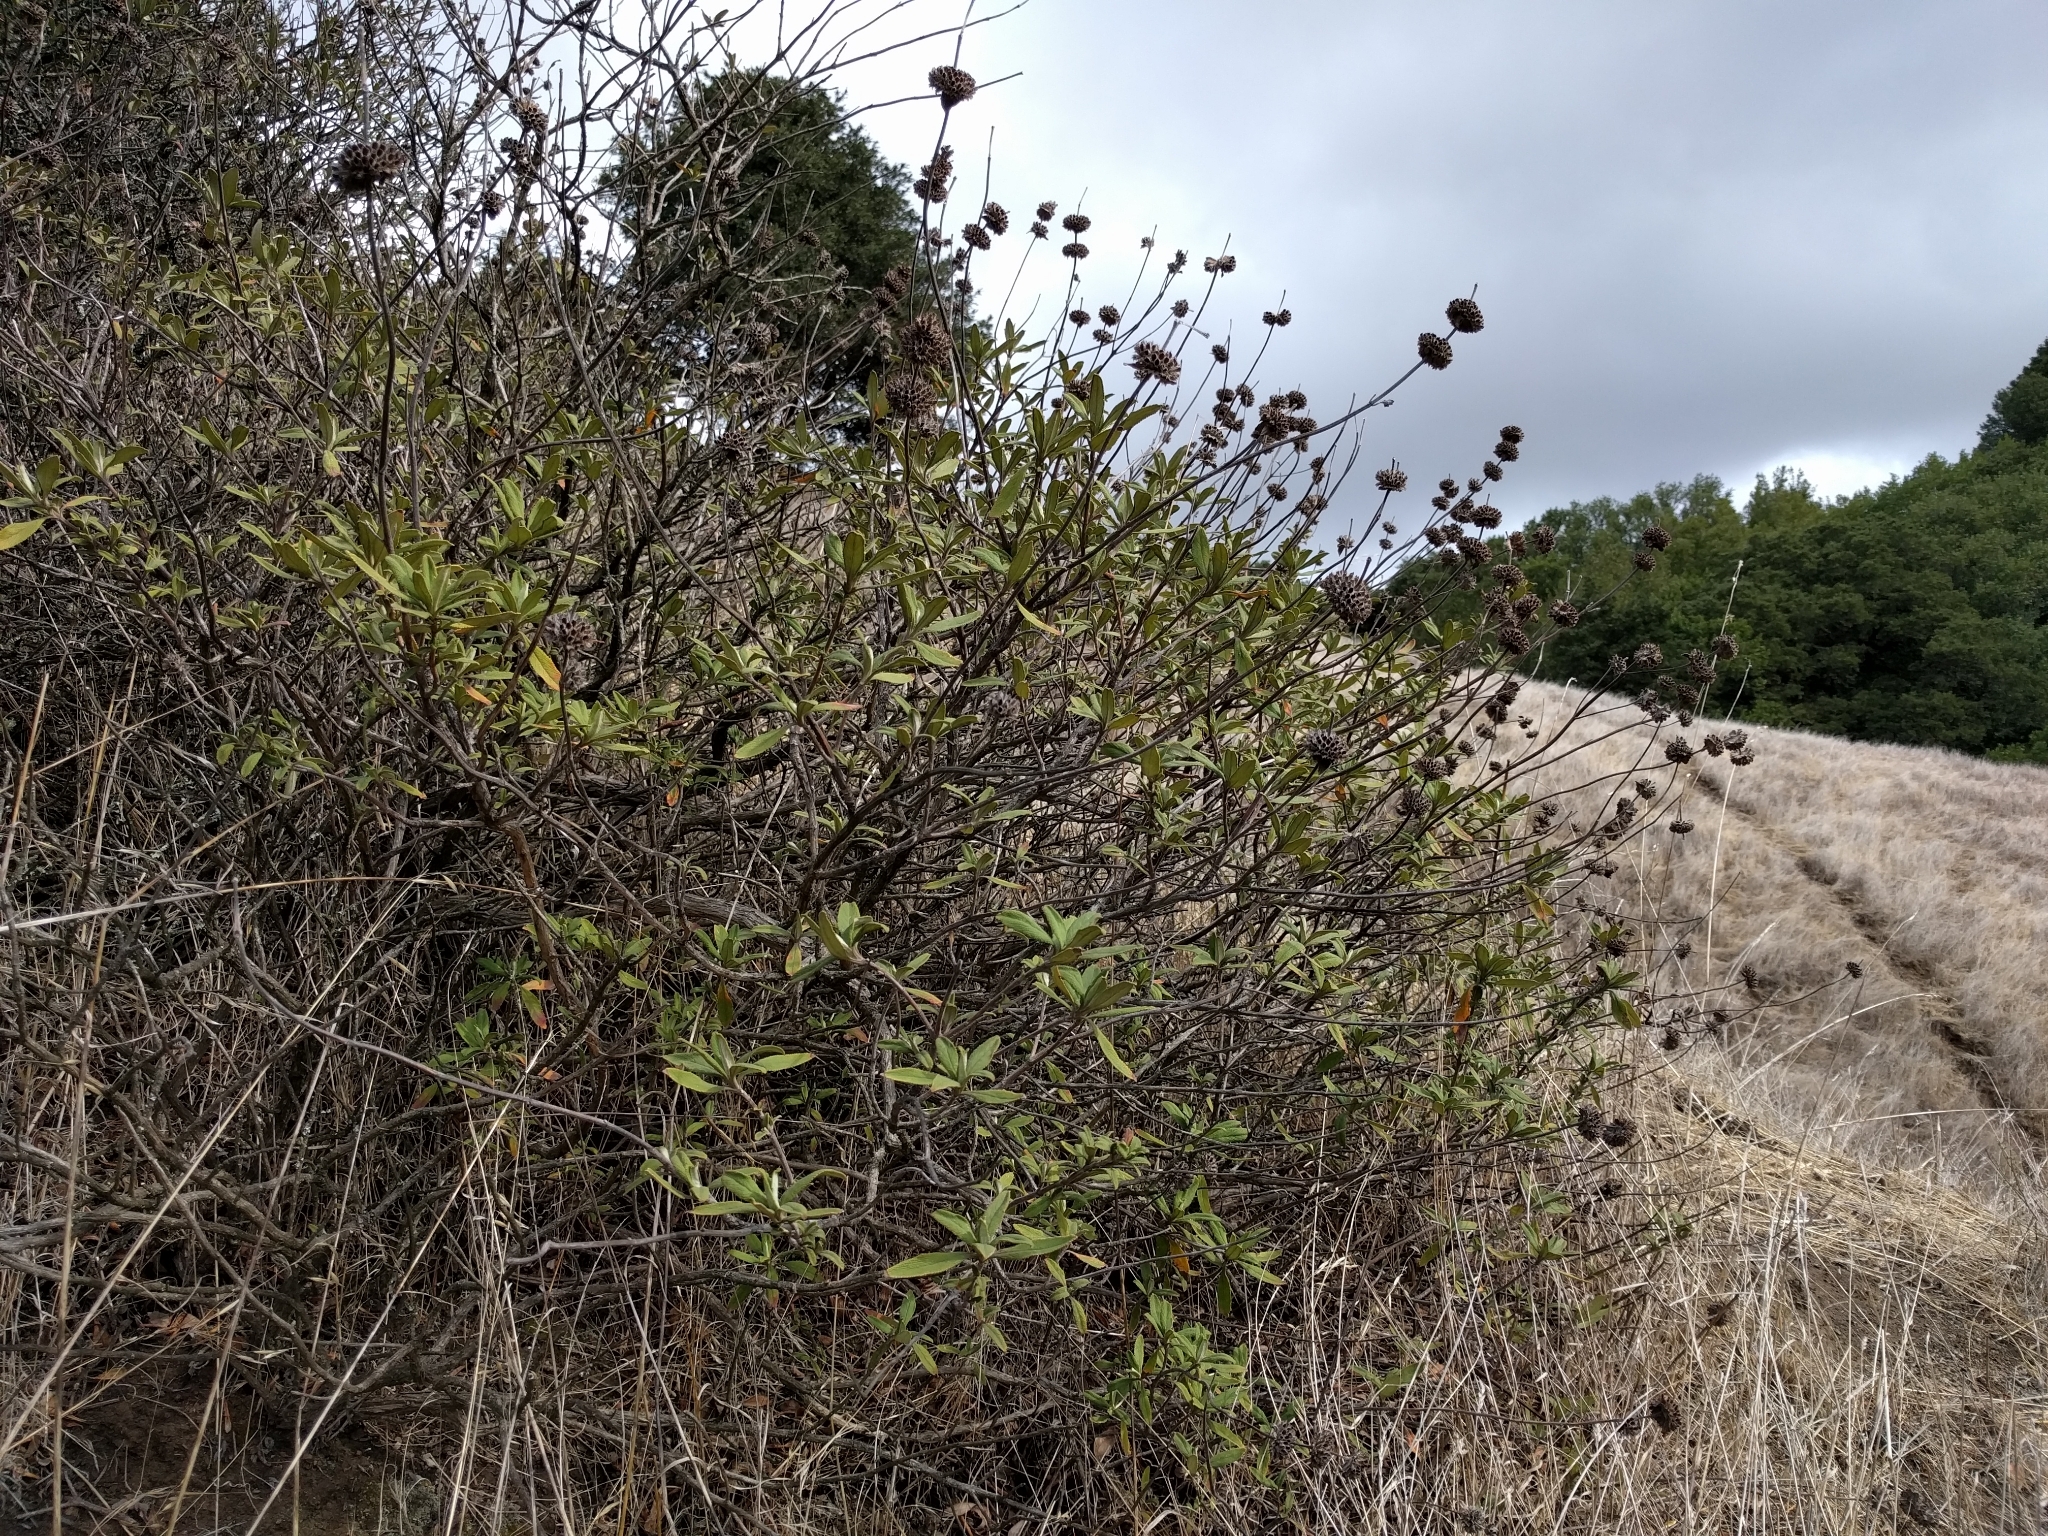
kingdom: Plantae
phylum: Tracheophyta
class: Magnoliopsida
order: Lamiales
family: Lamiaceae
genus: Salvia
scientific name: Salvia mellifera
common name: Black sage
